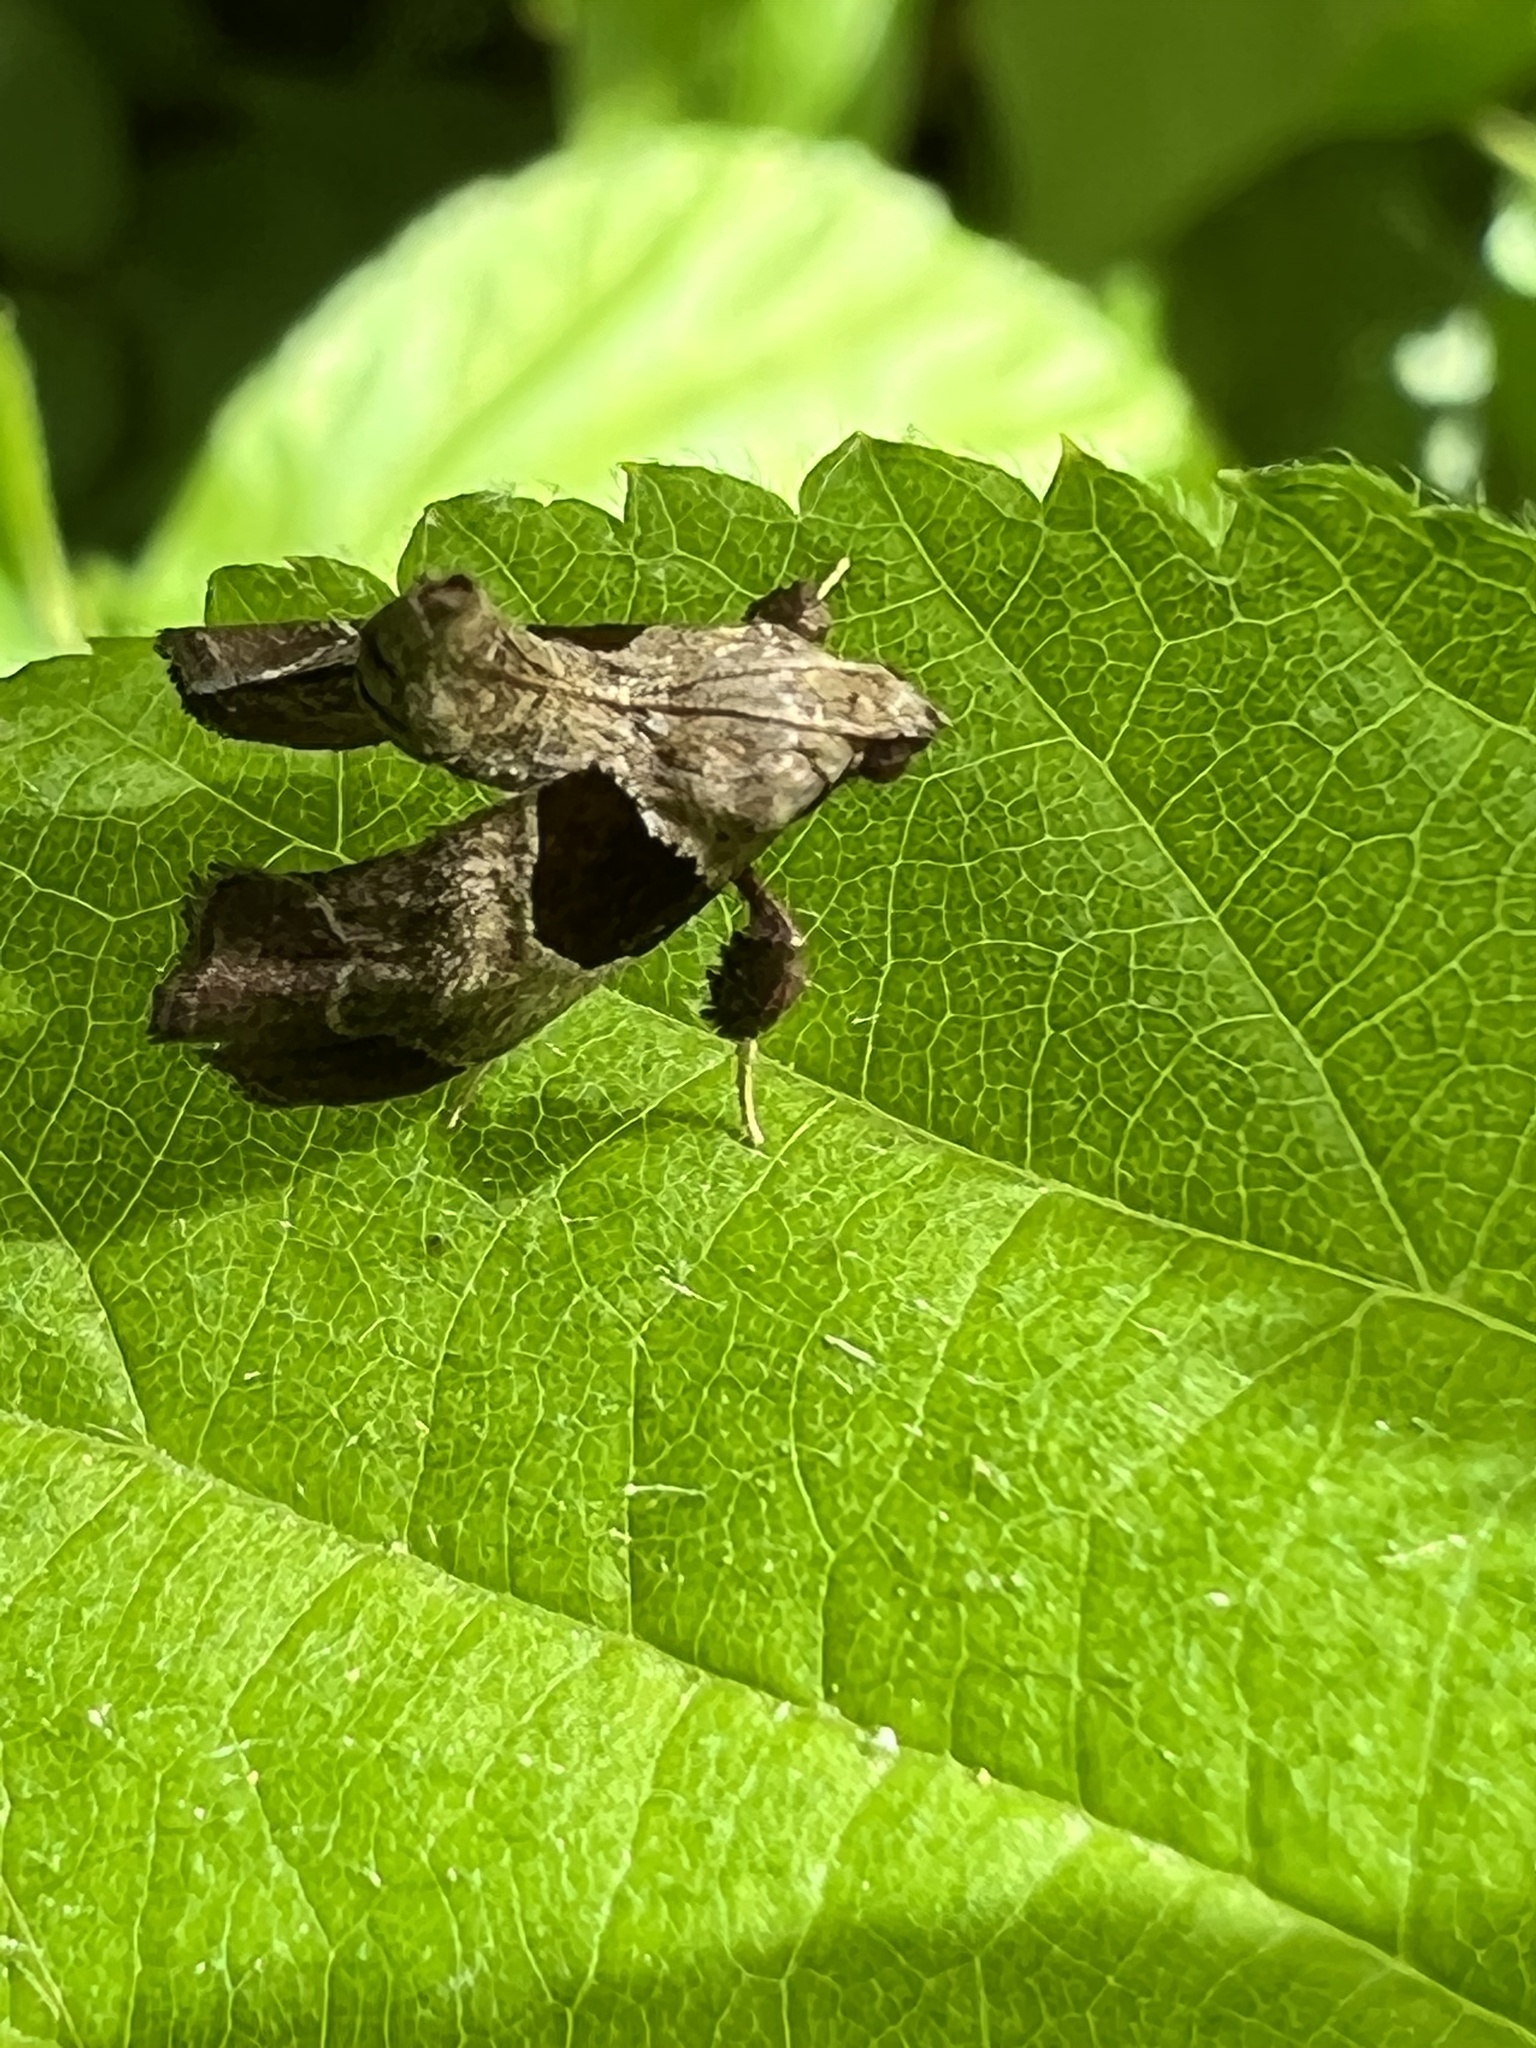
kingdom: Animalia
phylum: Arthropoda
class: Insecta
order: Lepidoptera
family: Pyralidae
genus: Tosale
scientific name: Tosale oviplagalis
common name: Dimorphic tosale moth
